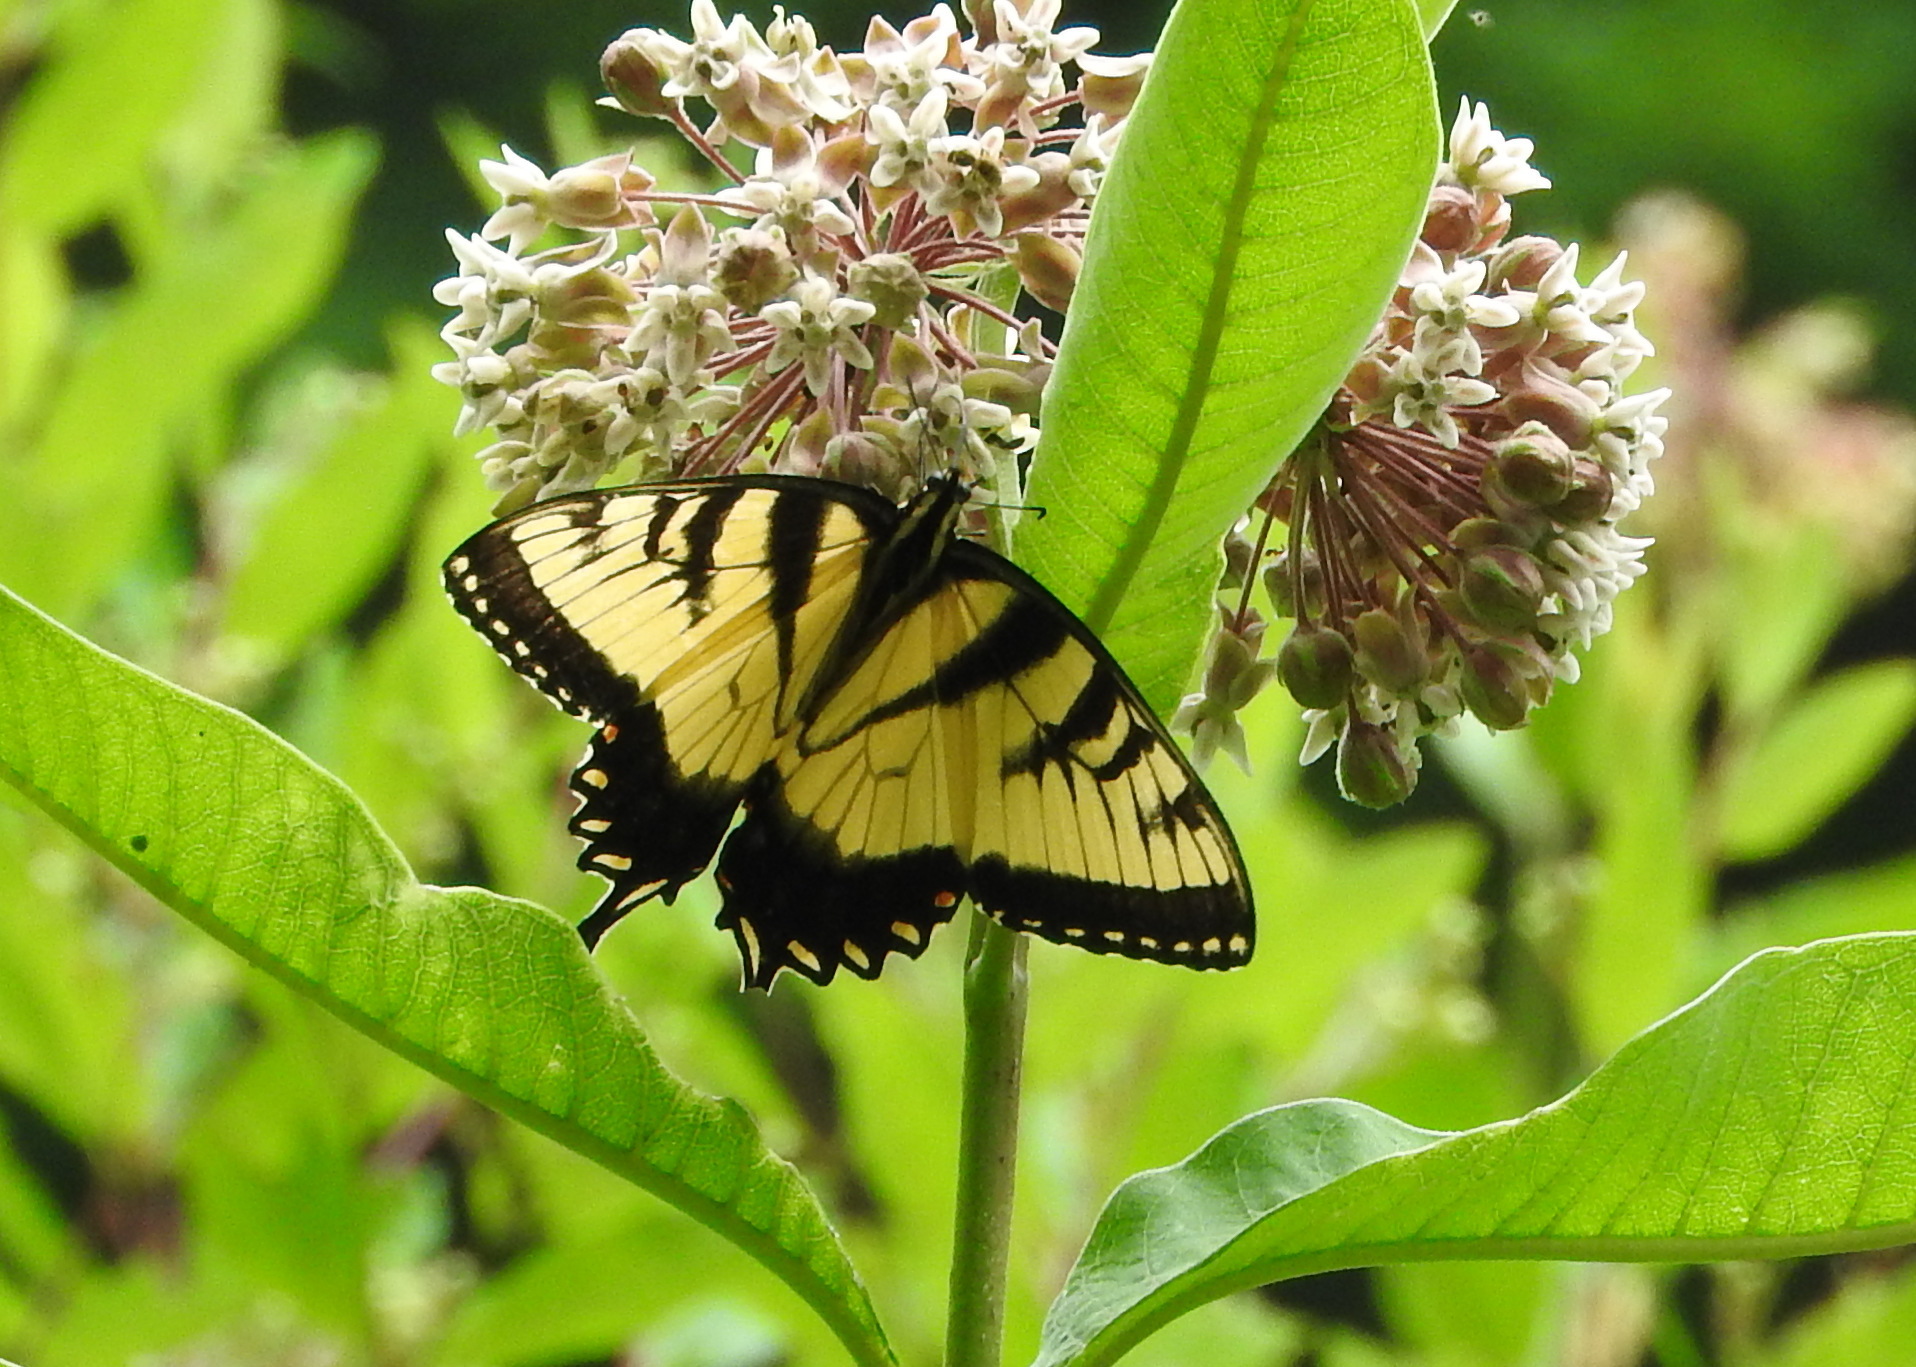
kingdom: Animalia
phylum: Arthropoda
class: Insecta
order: Lepidoptera
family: Papilionidae
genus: Papilio
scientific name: Papilio glaucus
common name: Tiger swallowtail
